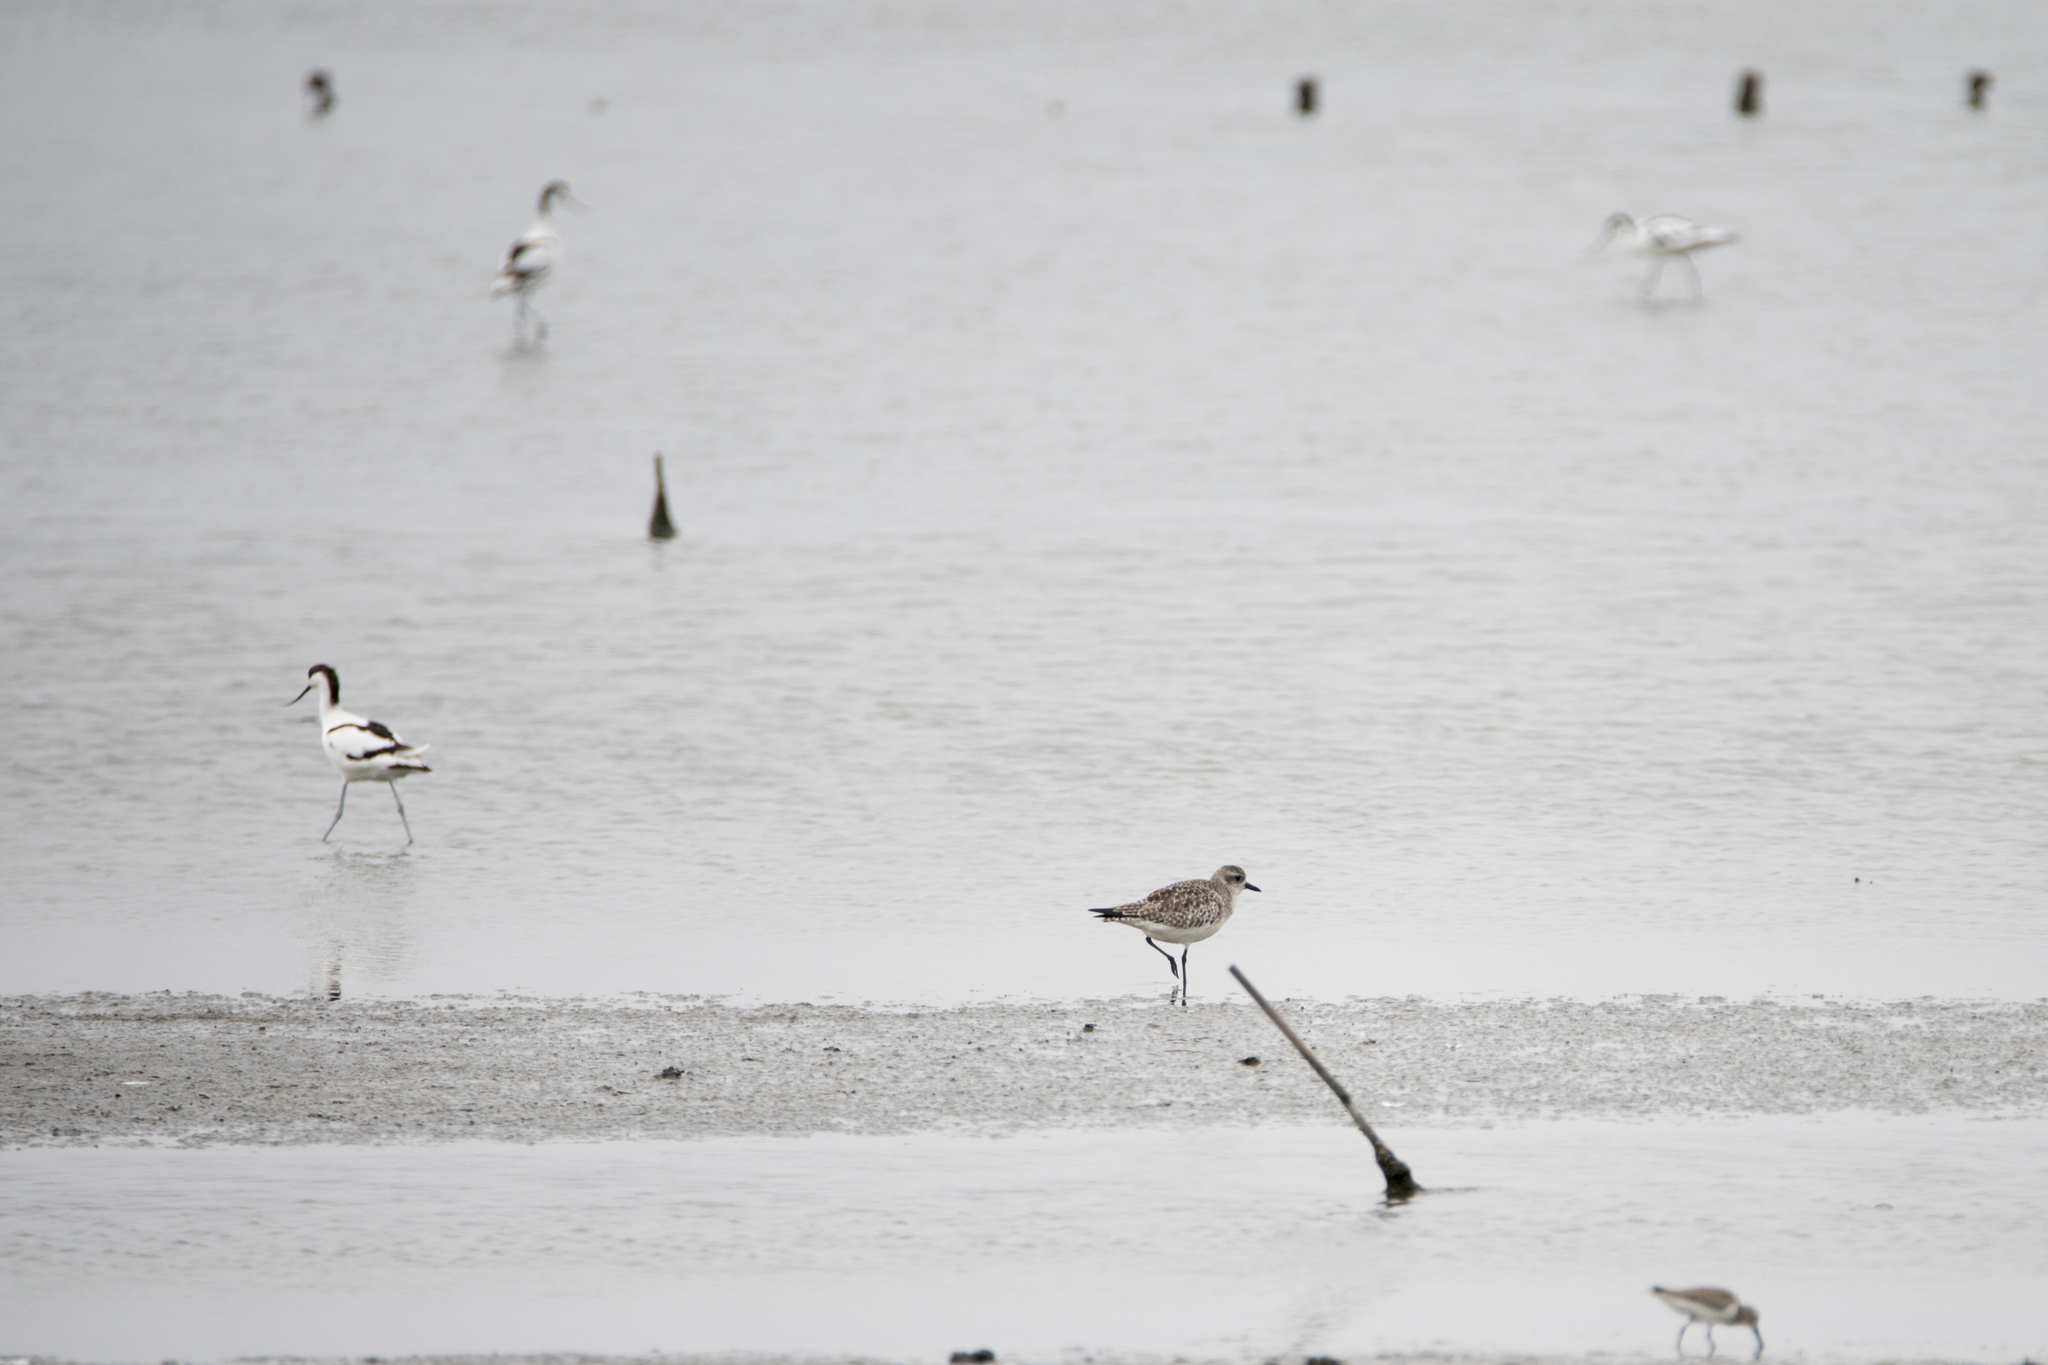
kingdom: Animalia
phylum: Chordata
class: Aves
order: Charadriiformes
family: Charadriidae
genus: Pluvialis
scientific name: Pluvialis squatarola
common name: Grey plover
